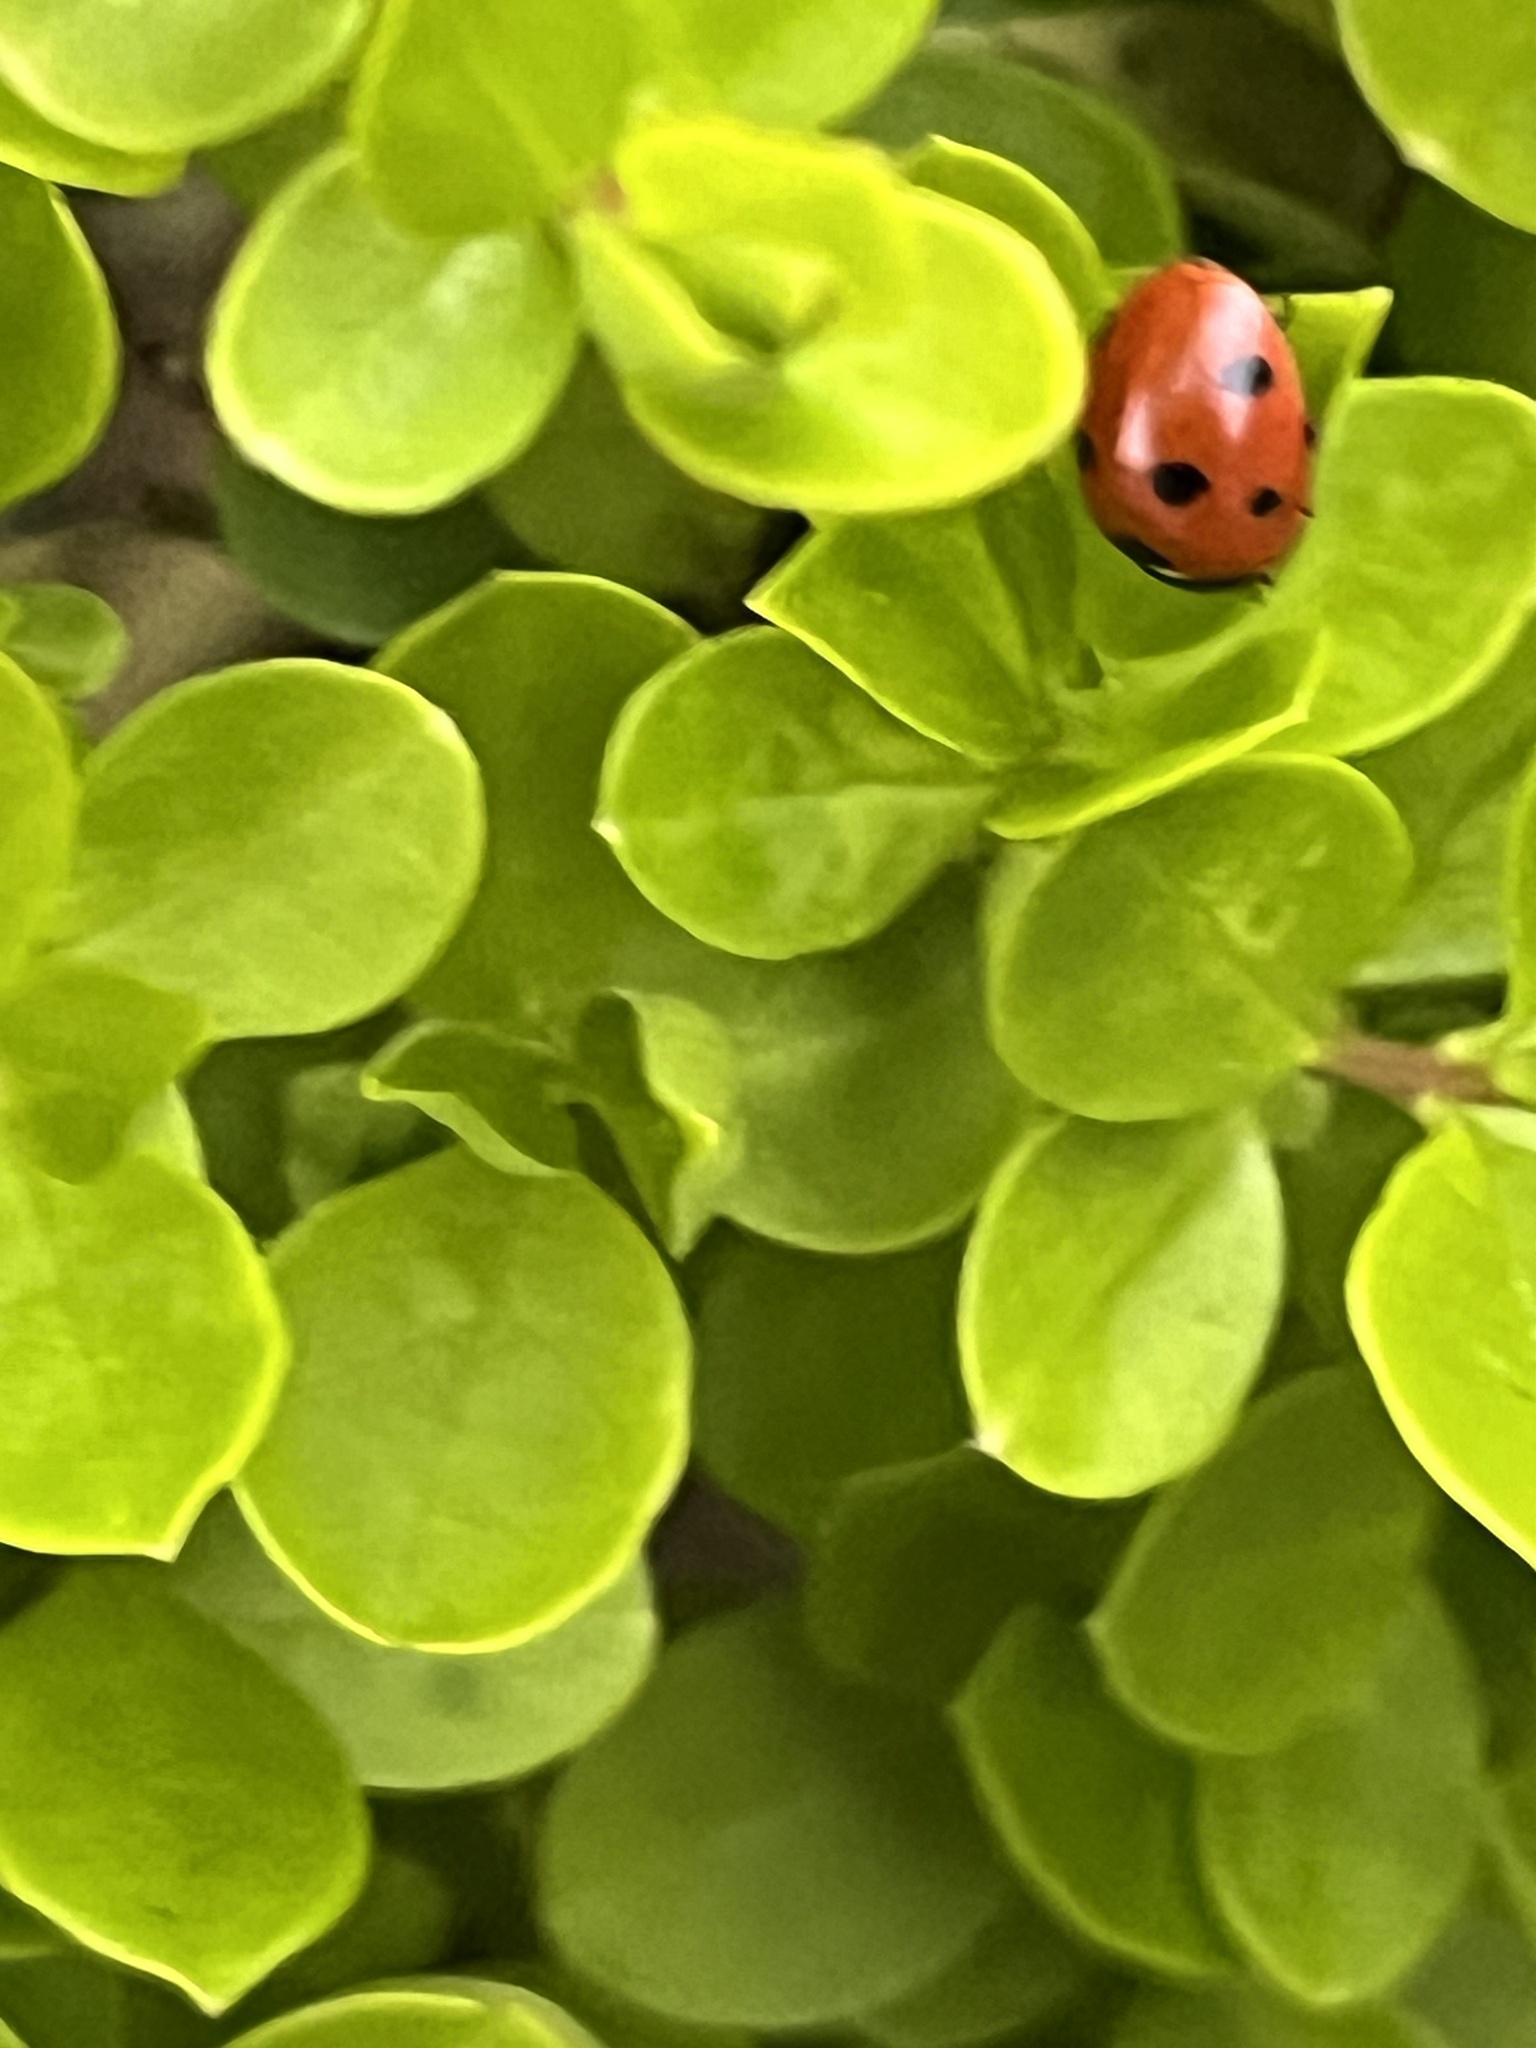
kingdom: Animalia
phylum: Arthropoda
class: Insecta
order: Coleoptera
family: Coccinellidae
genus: Coccinella
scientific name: Coccinella septempunctata
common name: Sevenspotted lady beetle
